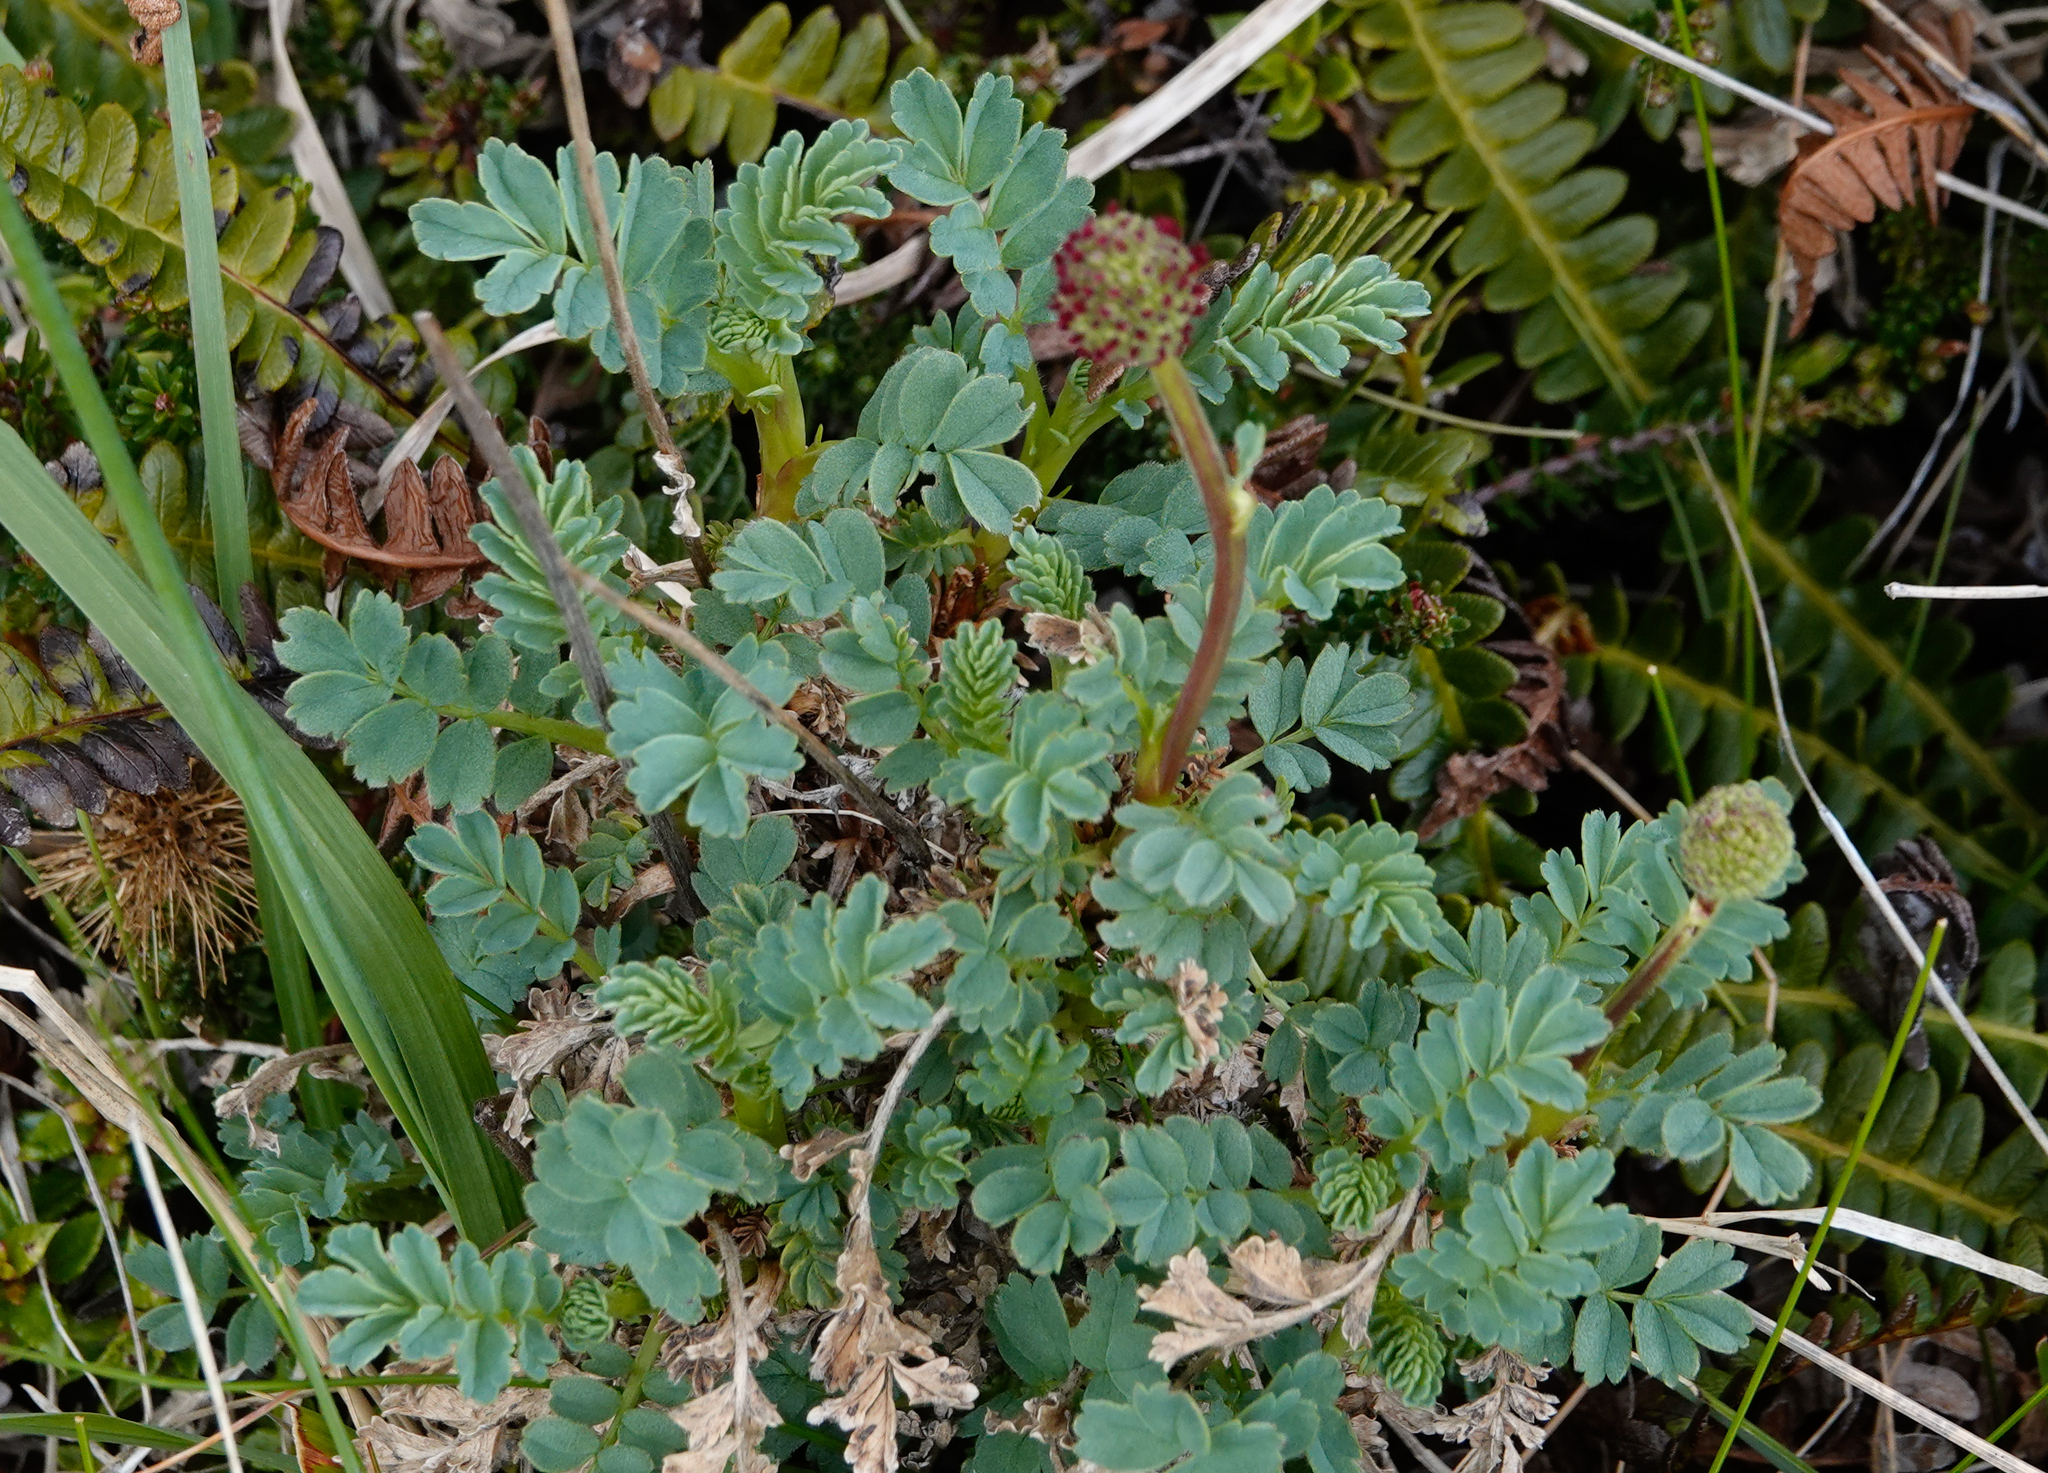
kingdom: Plantae
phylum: Tracheophyta
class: Magnoliopsida
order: Rosales
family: Rosaceae
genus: Acaena
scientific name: Acaena magellanica
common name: New zealand burr
